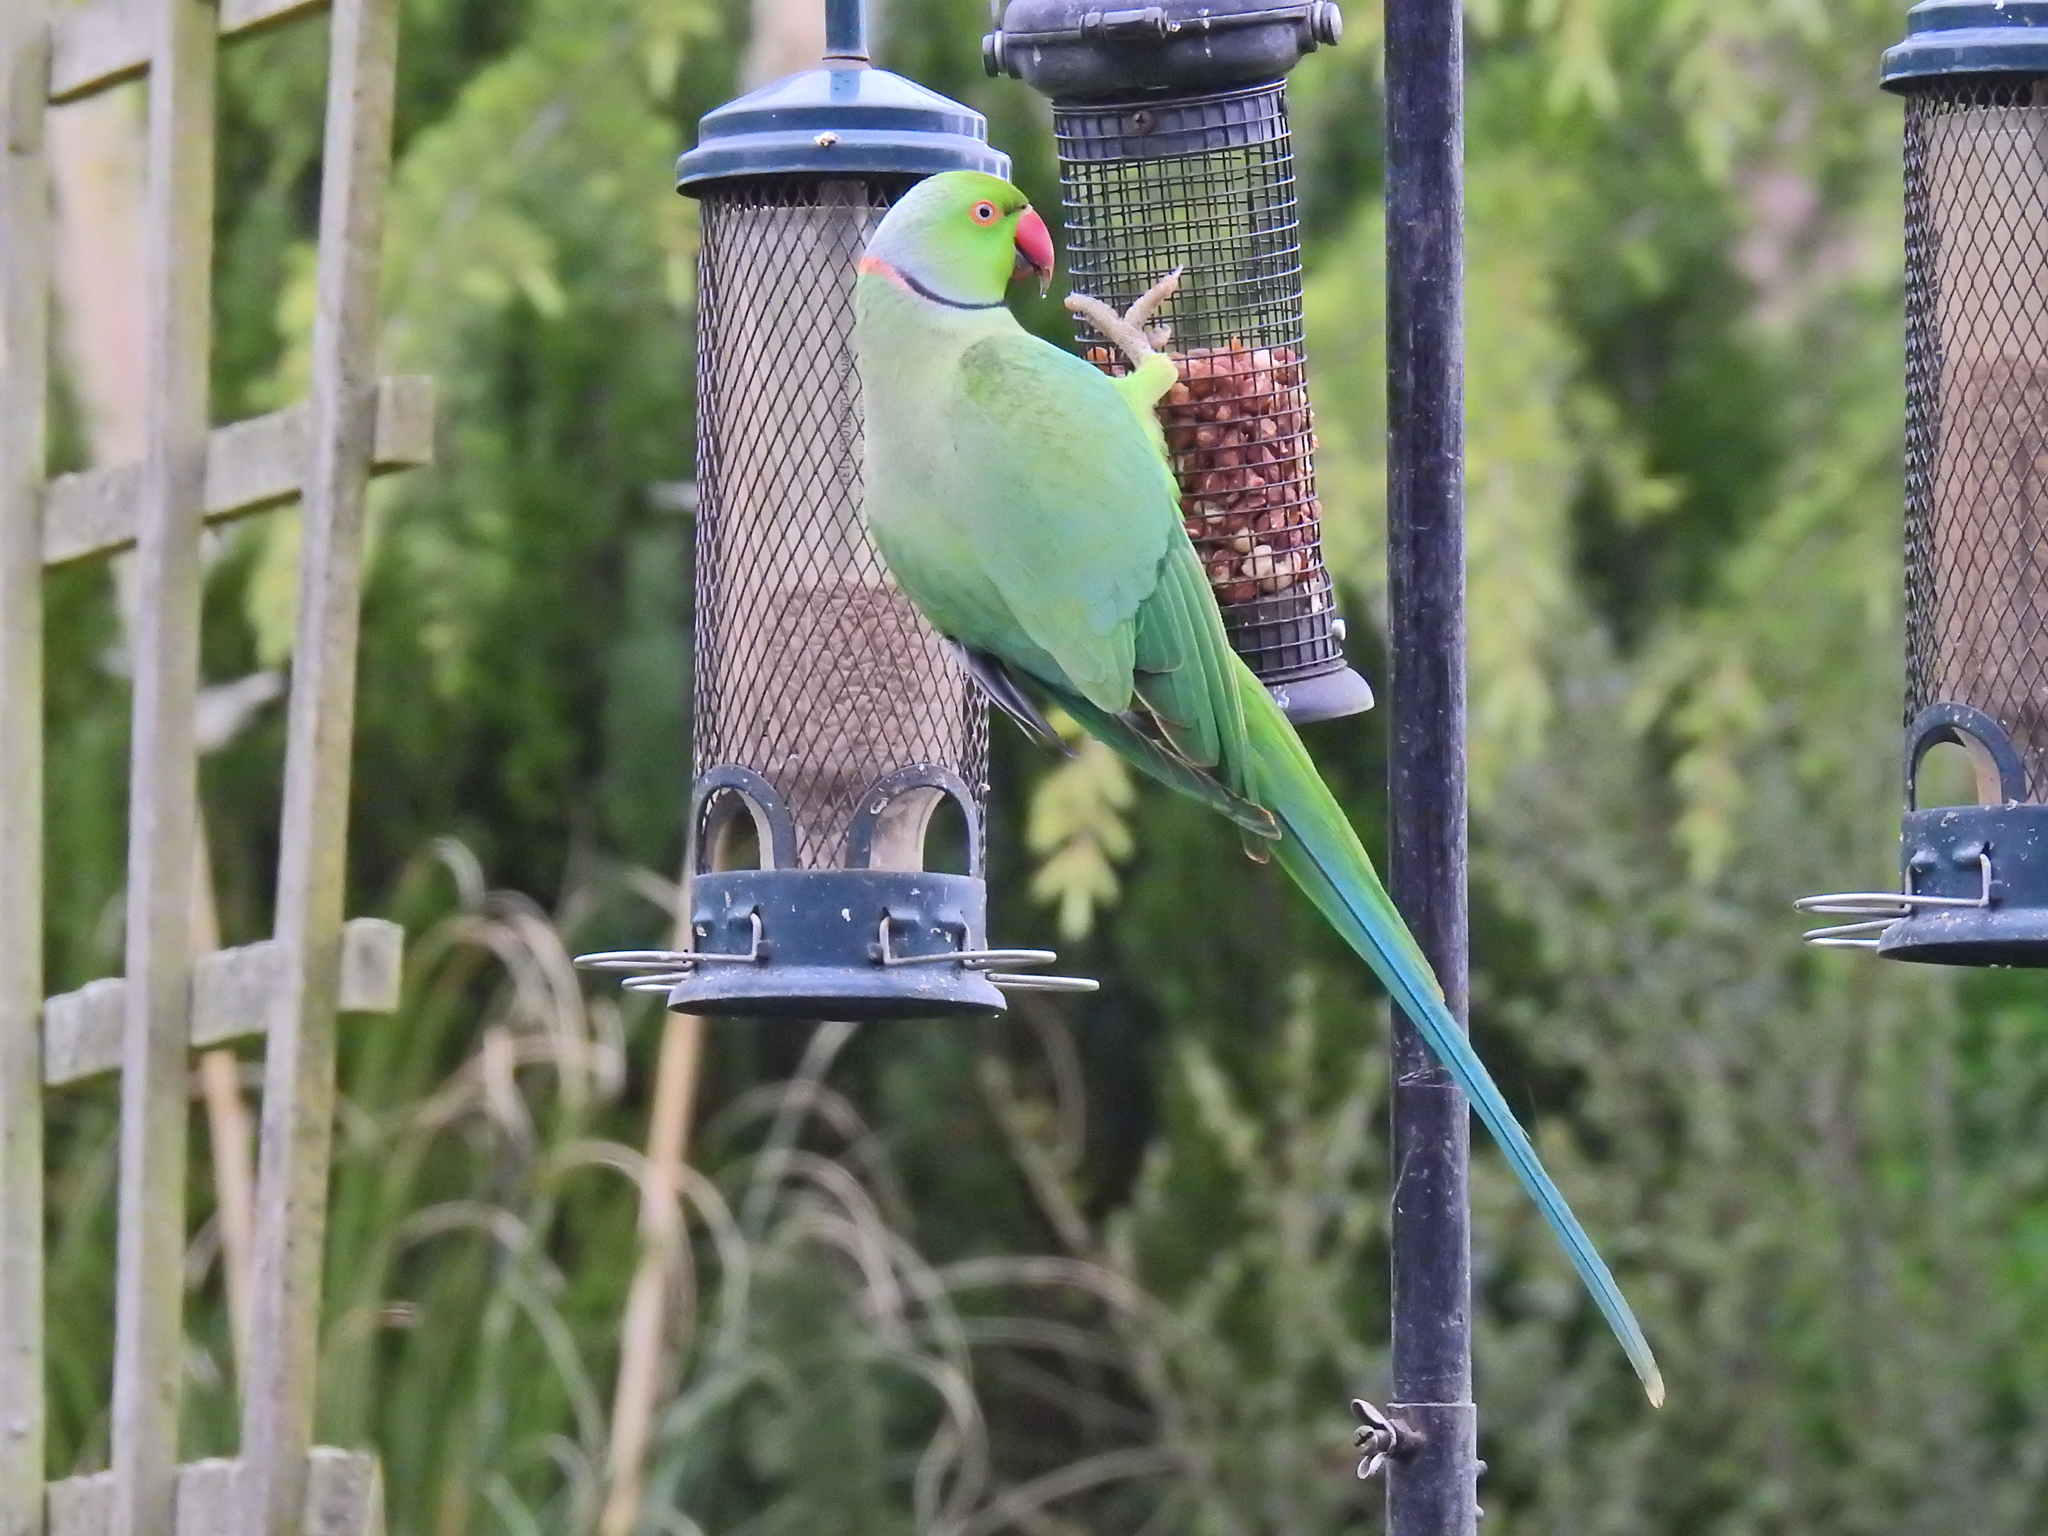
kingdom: Animalia
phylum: Chordata
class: Aves
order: Psittaciformes
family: Psittacidae
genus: Psittacula
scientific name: Psittacula krameri
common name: Rose-ringed parakeet
